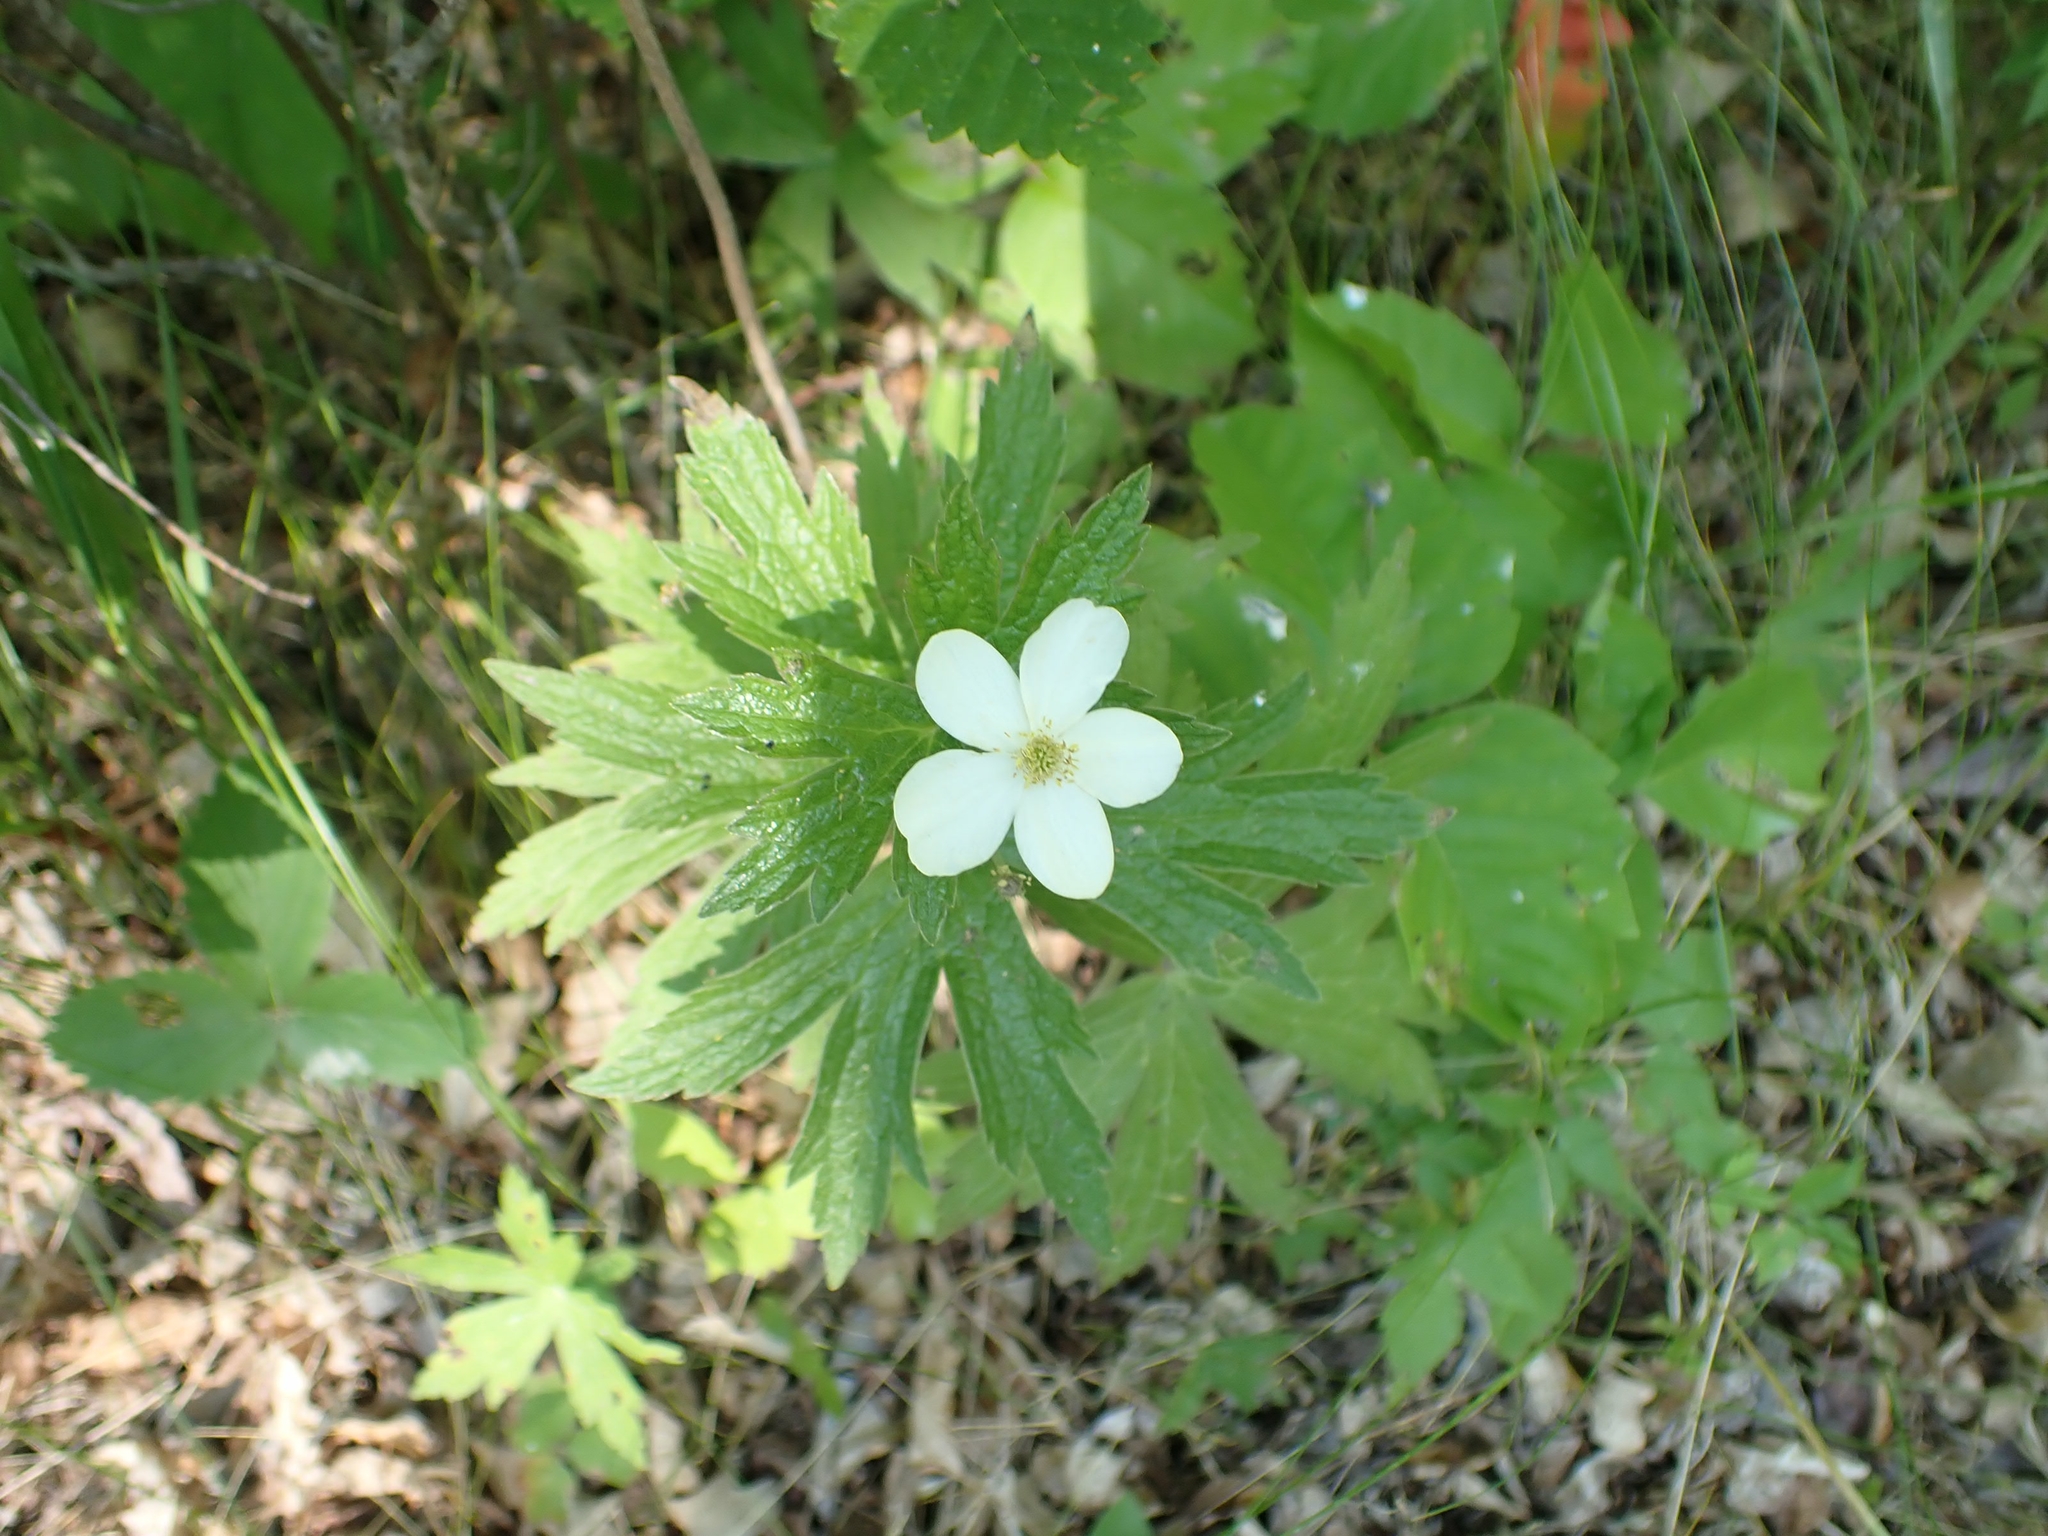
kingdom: Plantae
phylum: Tracheophyta
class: Magnoliopsida
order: Ranunculales
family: Ranunculaceae
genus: Anemonastrum
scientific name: Anemonastrum canadense
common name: Canada anemone
